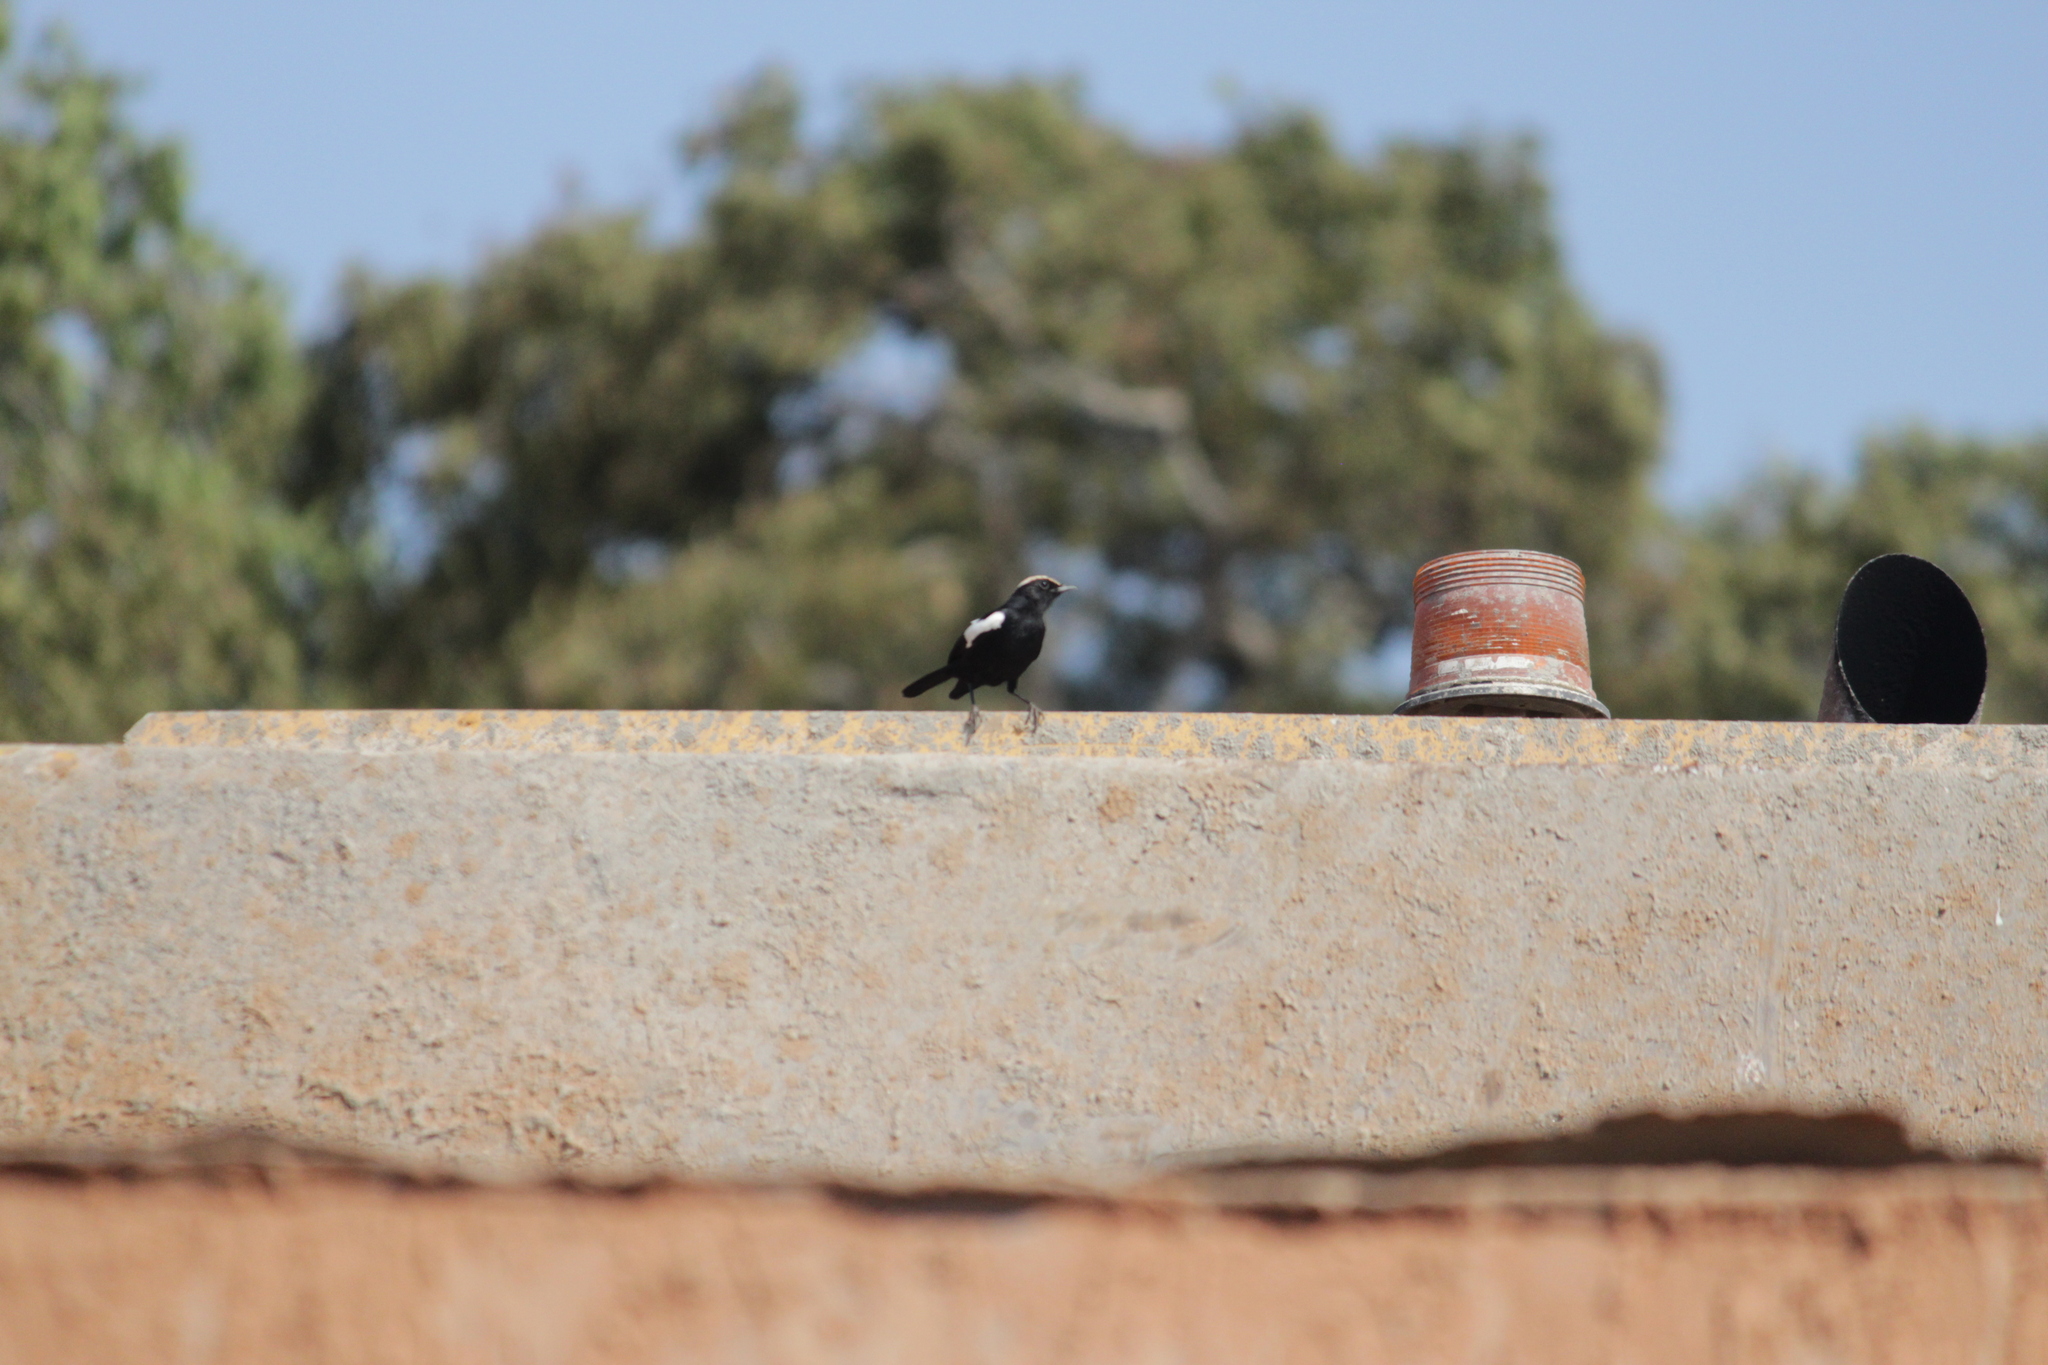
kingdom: Animalia
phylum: Chordata
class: Aves
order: Passeriformes
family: Muscicapidae
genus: Pentholaea
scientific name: Pentholaea arnotti
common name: Arnot's chat
